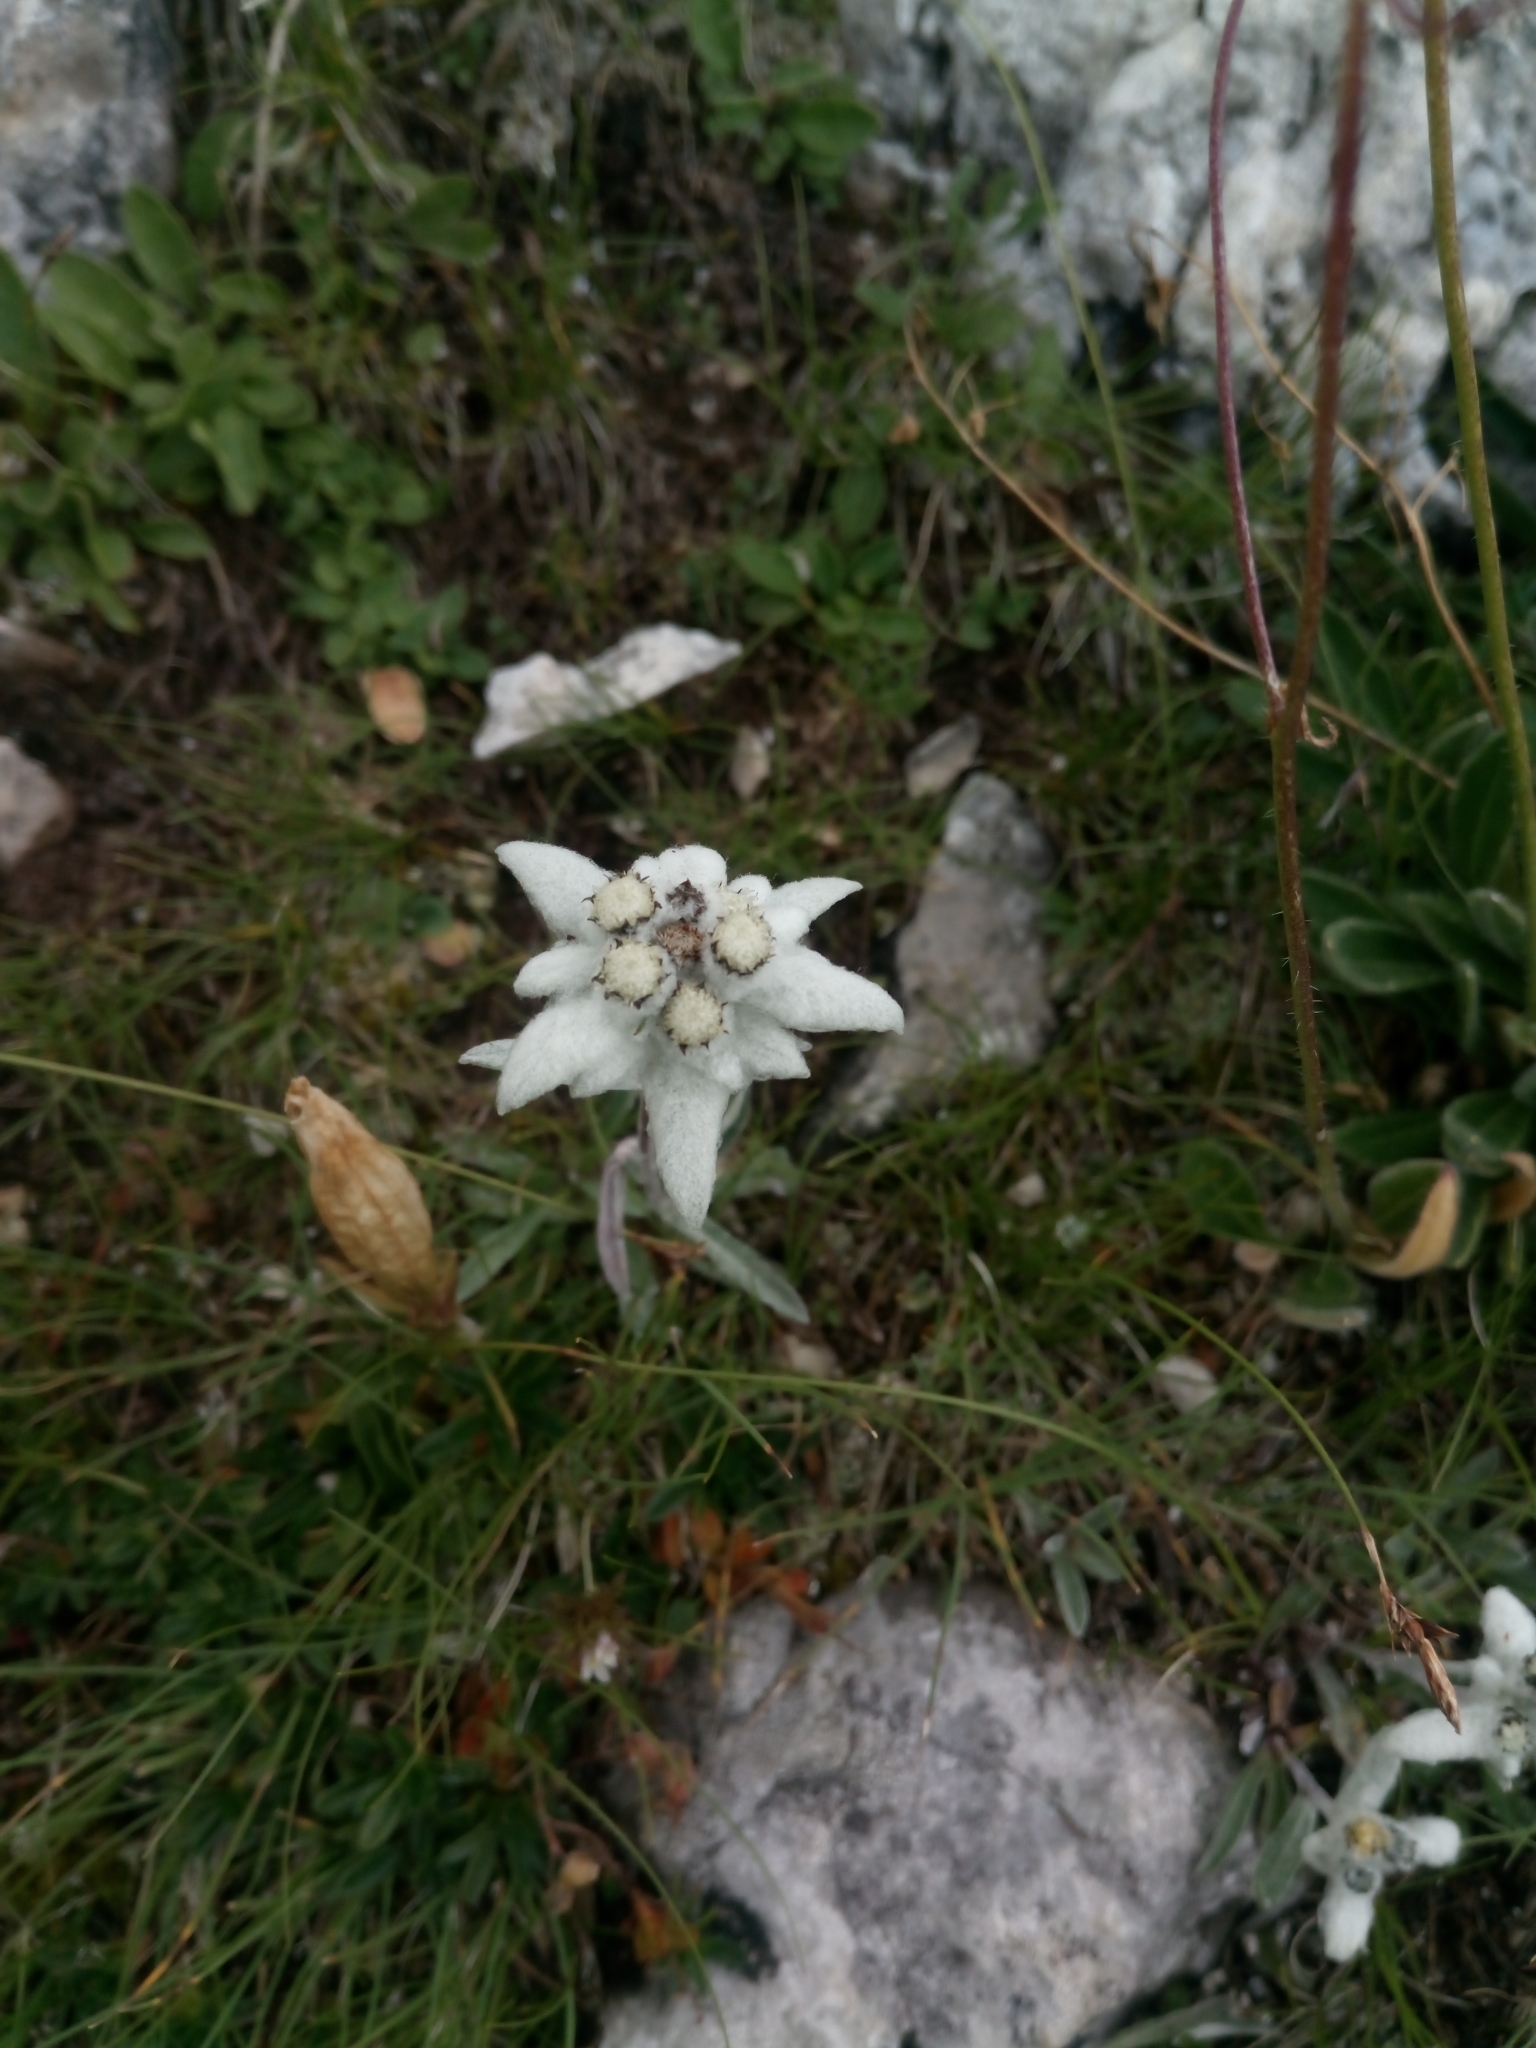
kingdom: Plantae
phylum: Tracheophyta
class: Magnoliopsida
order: Asterales
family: Asteraceae
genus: Leontopodium
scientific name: Leontopodium nivale
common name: Edelweiss
